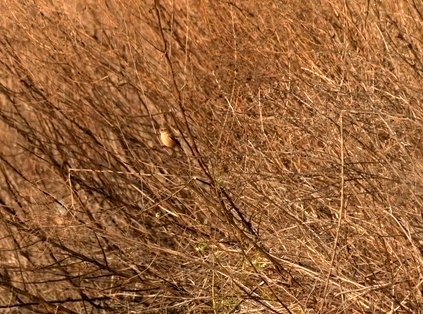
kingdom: Animalia
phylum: Chordata
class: Aves
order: Passeriformes
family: Muscicapidae
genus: Saxicola
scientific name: Saxicola rubicola
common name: European stonechat
